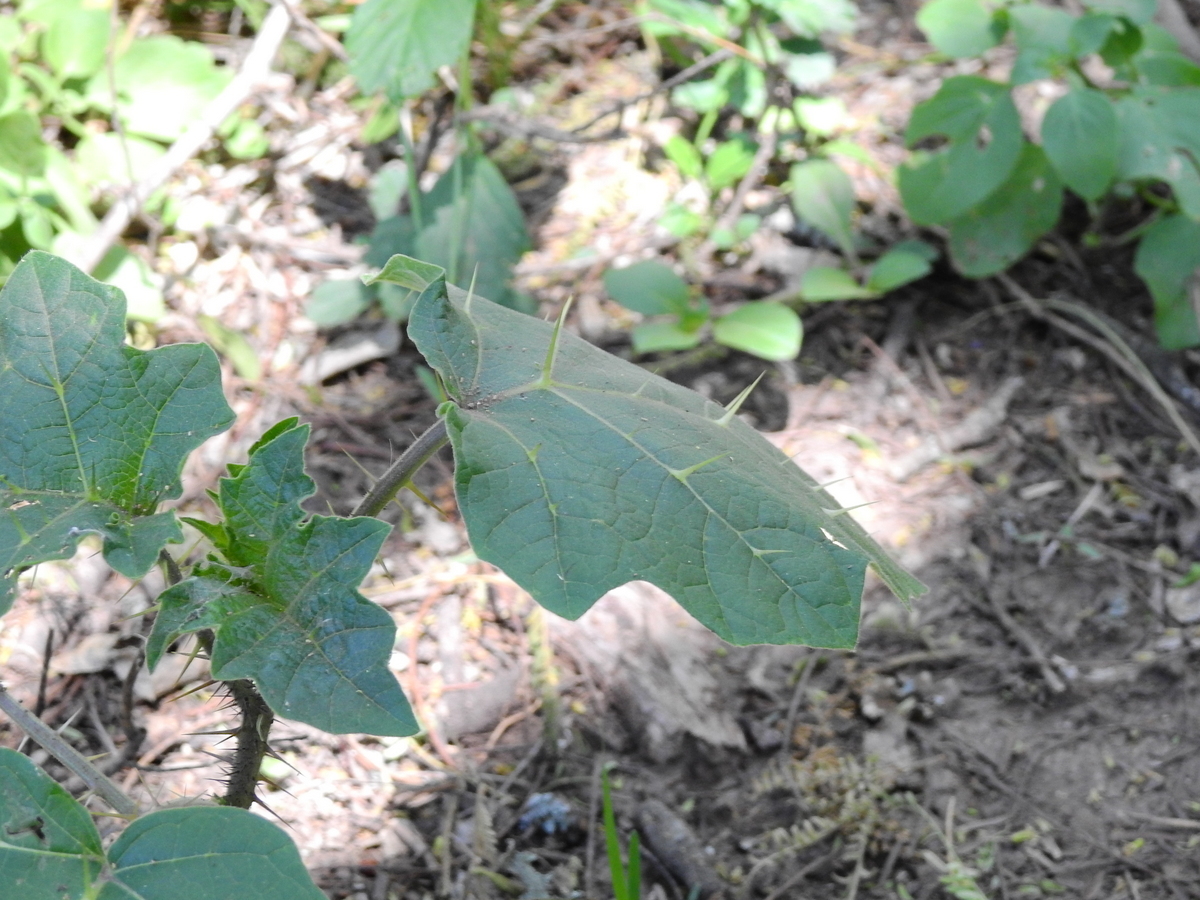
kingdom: Plantae
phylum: Tracheophyta
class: Magnoliopsida
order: Solanales
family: Solanaceae
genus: Solanum
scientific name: Solanum viarum
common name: Tropical soda apple
